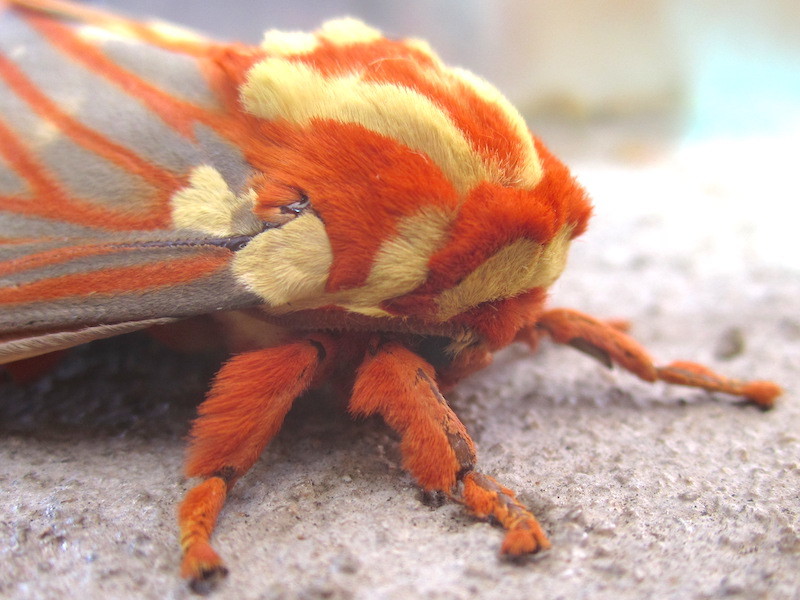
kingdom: Animalia
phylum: Arthropoda
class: Insecta
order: Lepidoptera
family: Saturniidae
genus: Citheronia
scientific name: Citheronia regalis
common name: Hickory horned devil
